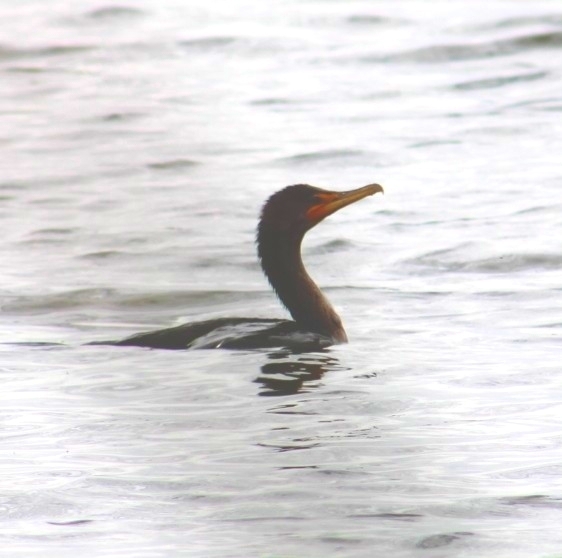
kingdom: Animalia
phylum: Chordata
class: Aves
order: Suliformes
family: Phalacrocoracidae
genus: Phalacrocorax
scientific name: Phalacrocorax auritus
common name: Double-crested cormorant
